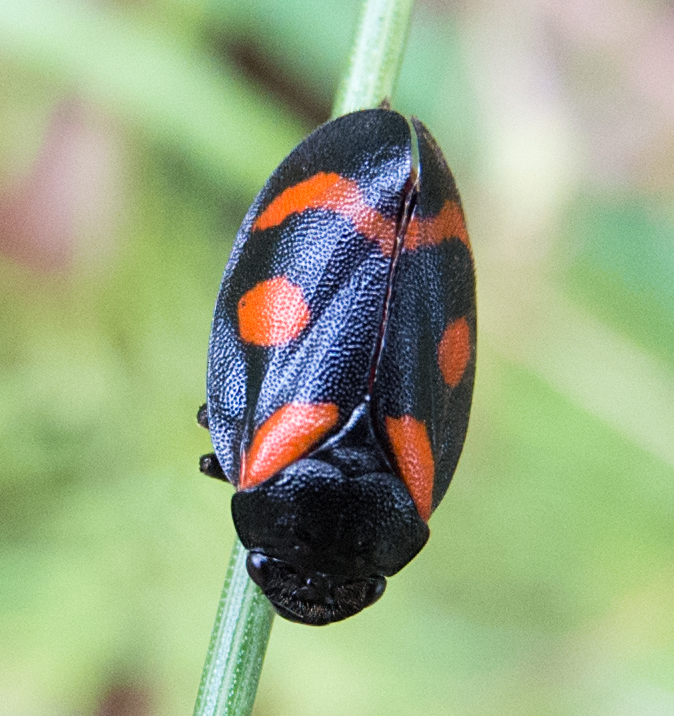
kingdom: Animalia
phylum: Arthropoda
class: Insecta
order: Hemiptera
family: Cercopidae
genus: Cercopis
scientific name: Cercopis arcuata
